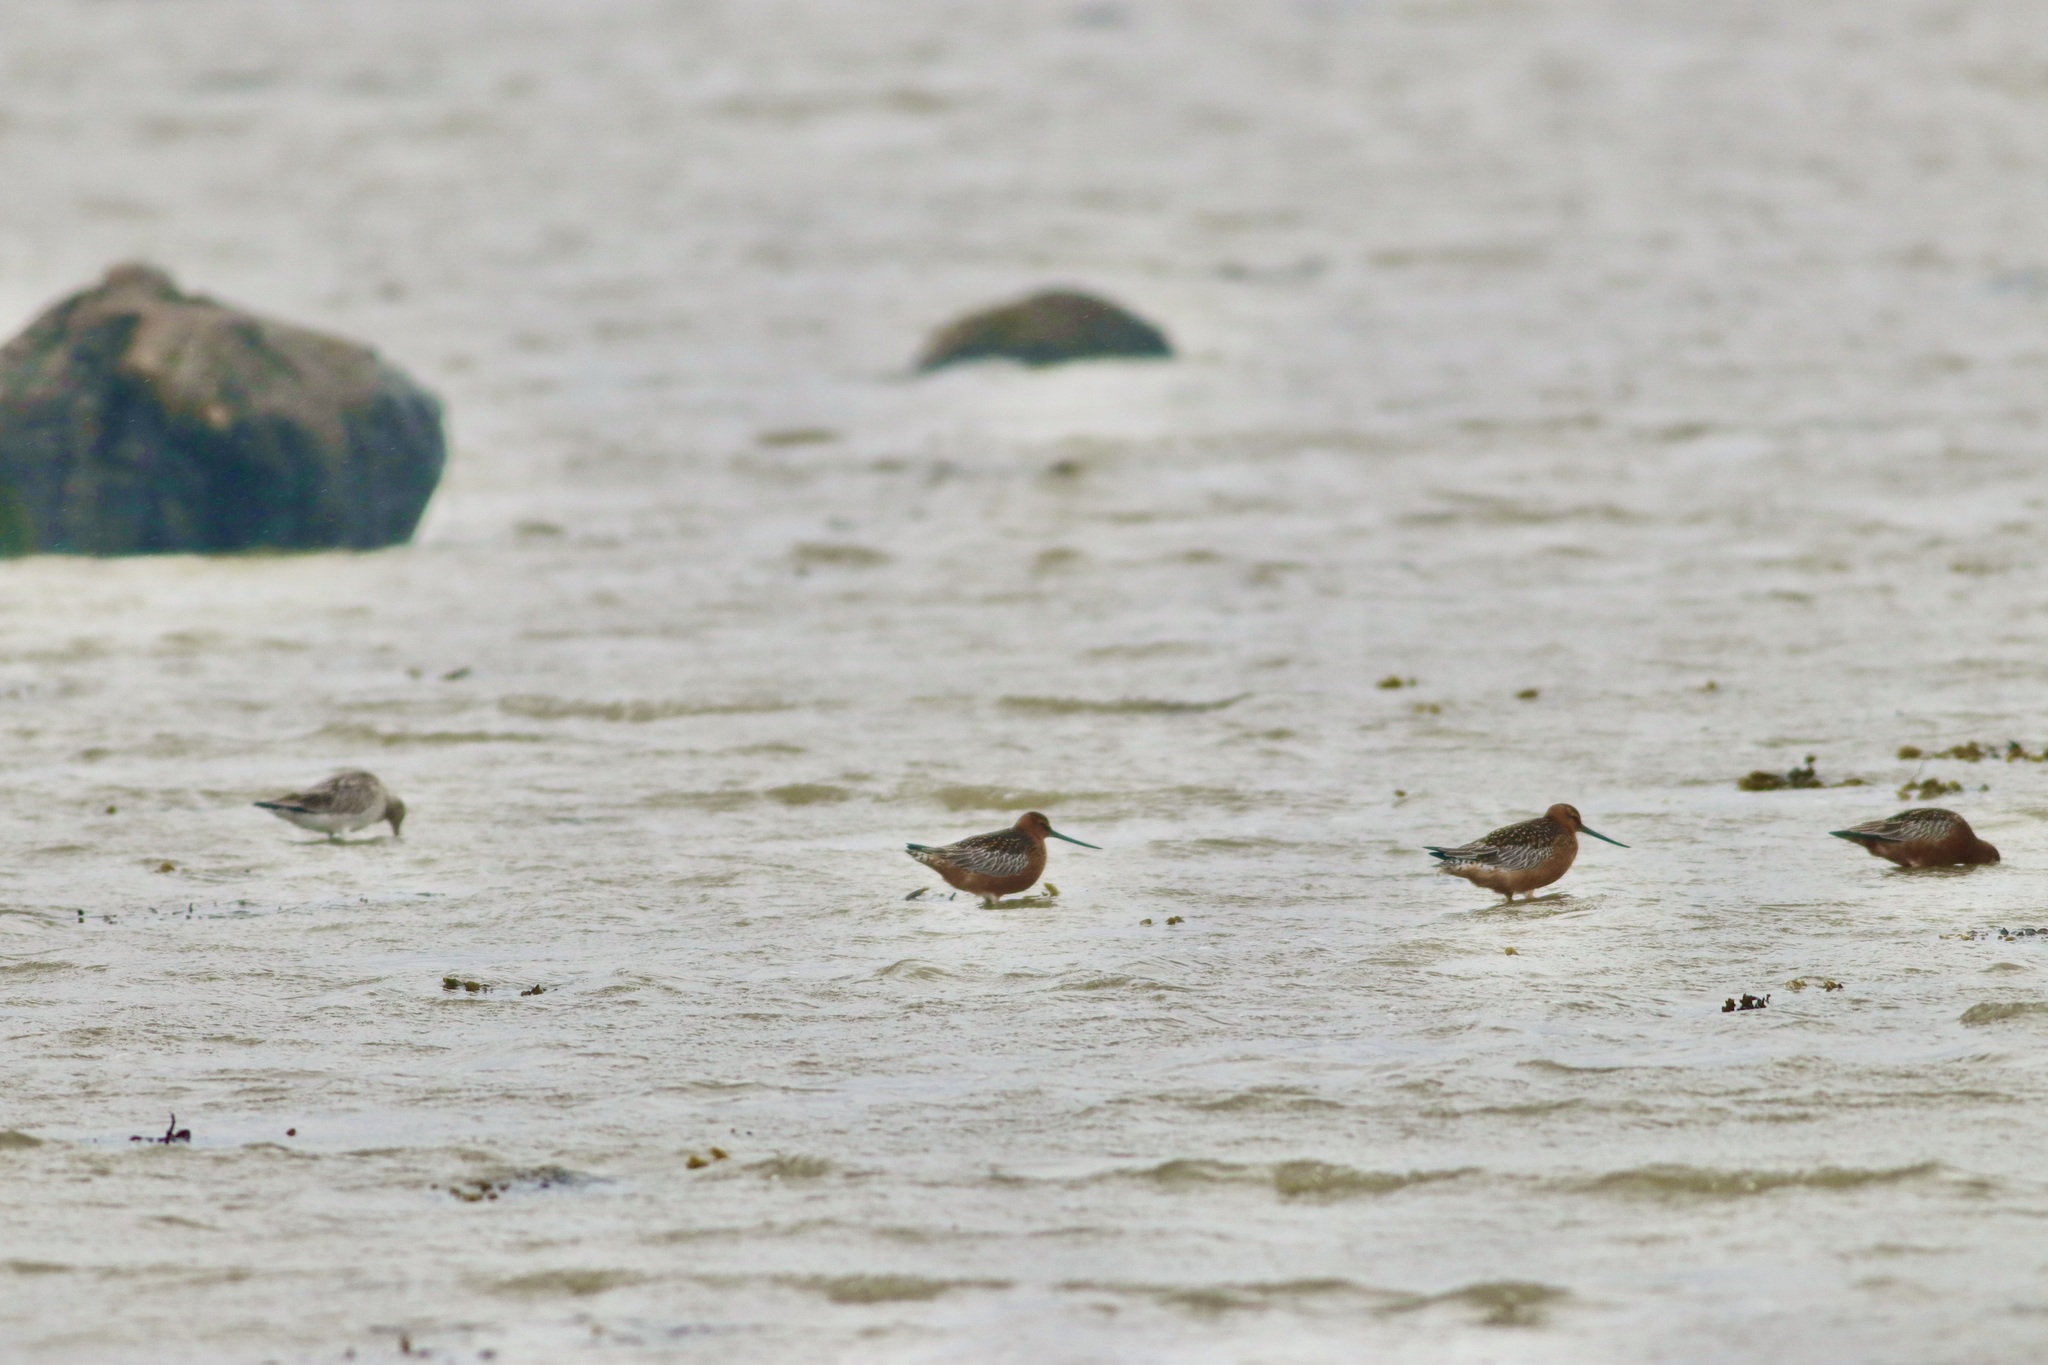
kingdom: Animalia
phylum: Chordata
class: Aves
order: Charadriiformes
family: Scolopacidae
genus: Limosa
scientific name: Limosa lapponica
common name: Bar-tailed godwit
